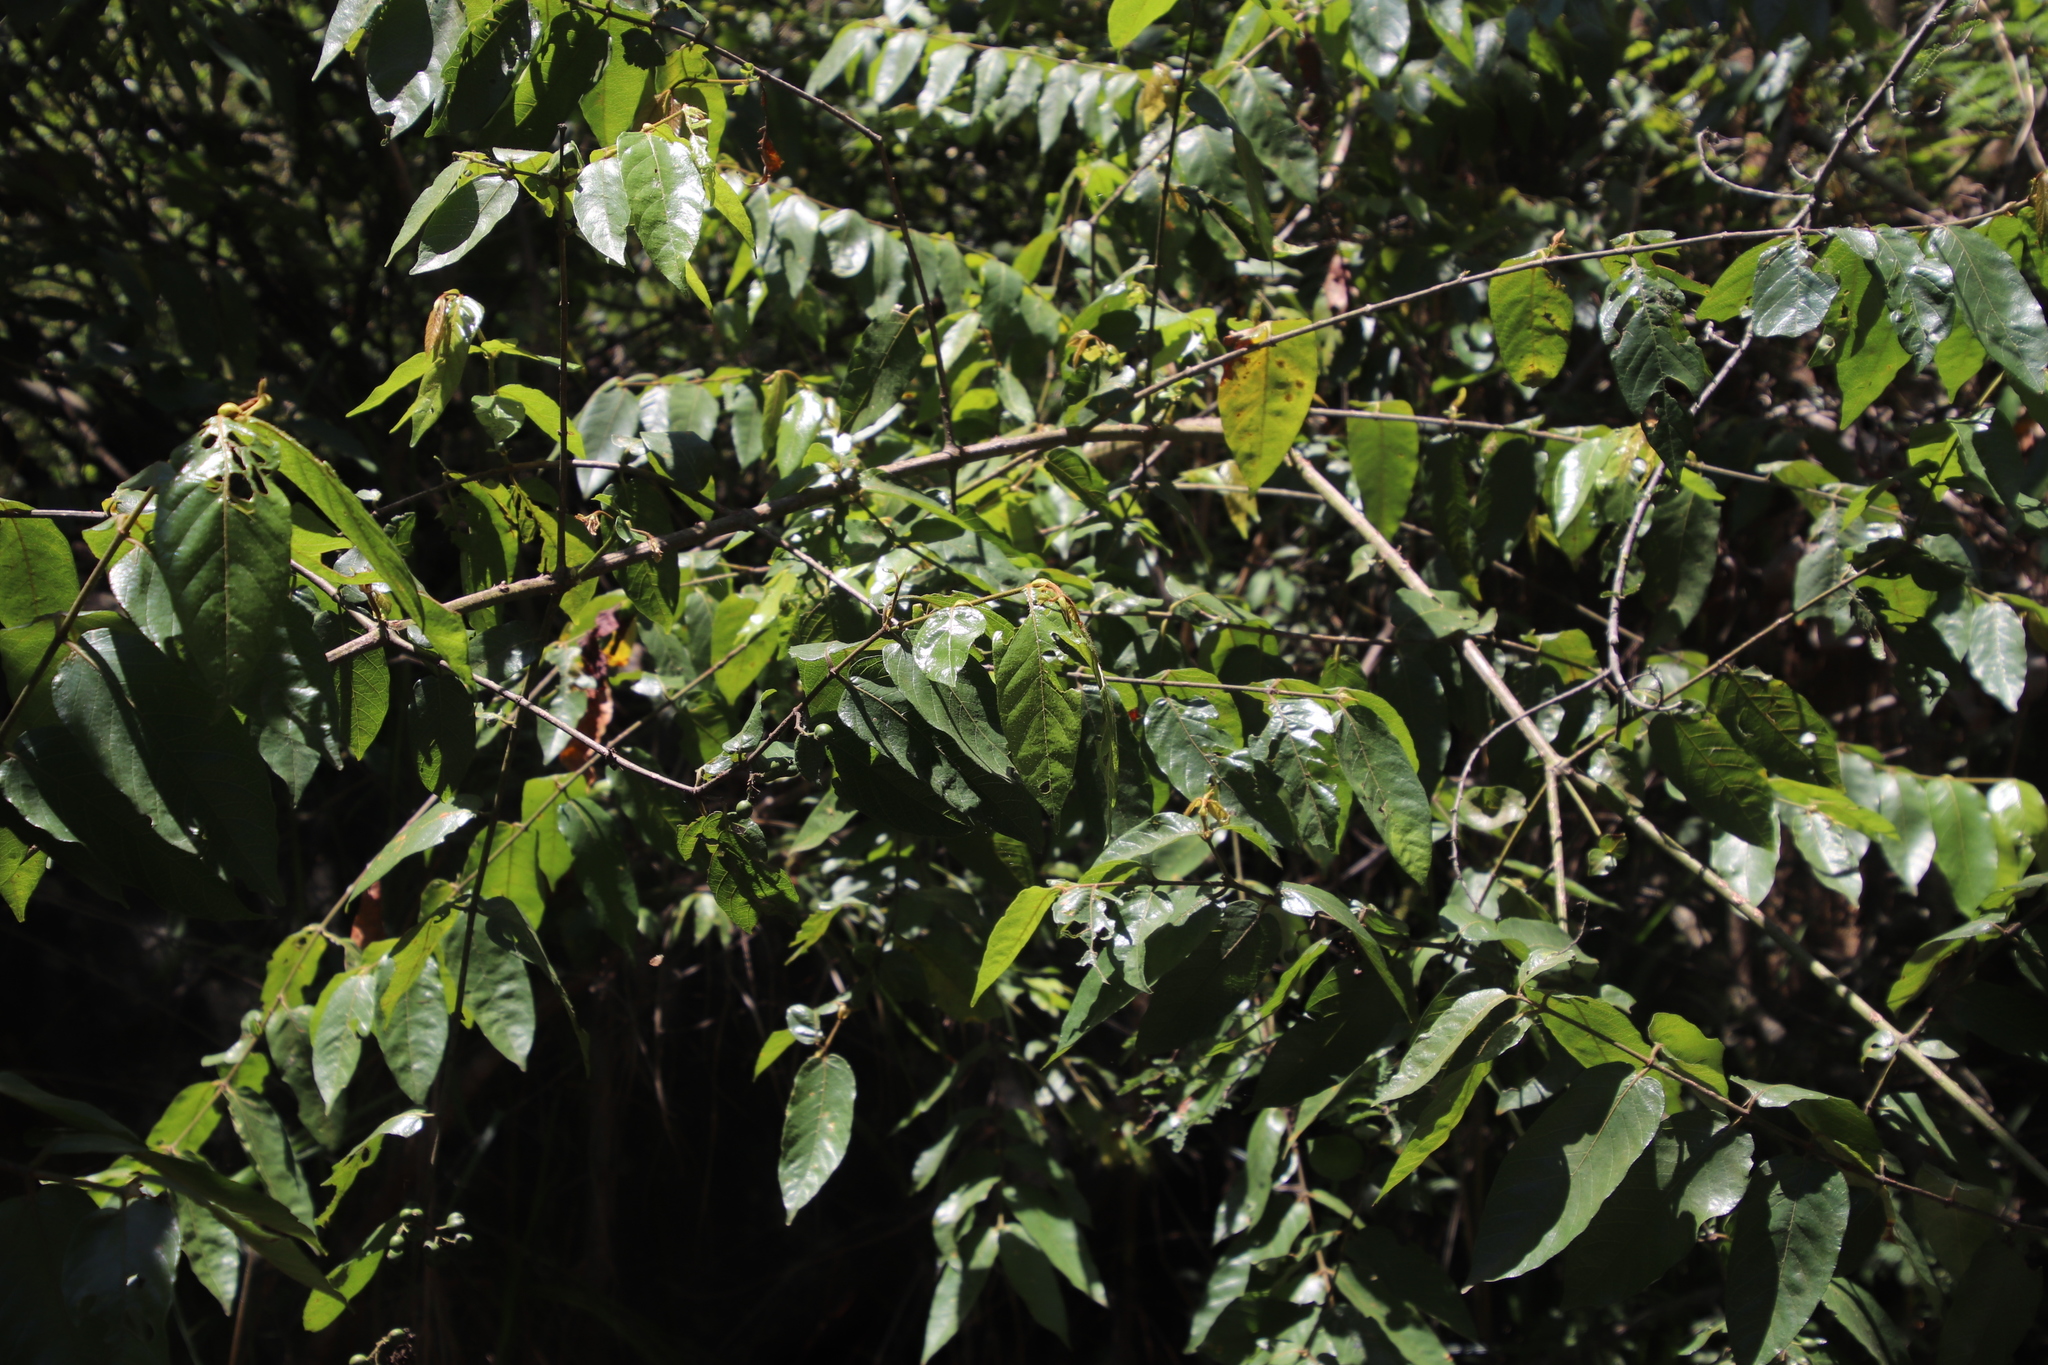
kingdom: Plantae
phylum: Tracheophyta
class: Magnoliopsida
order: Malpighiales
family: Phyllanthaceae
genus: Bridelia
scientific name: Bridelia micrantha
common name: Bridelia
